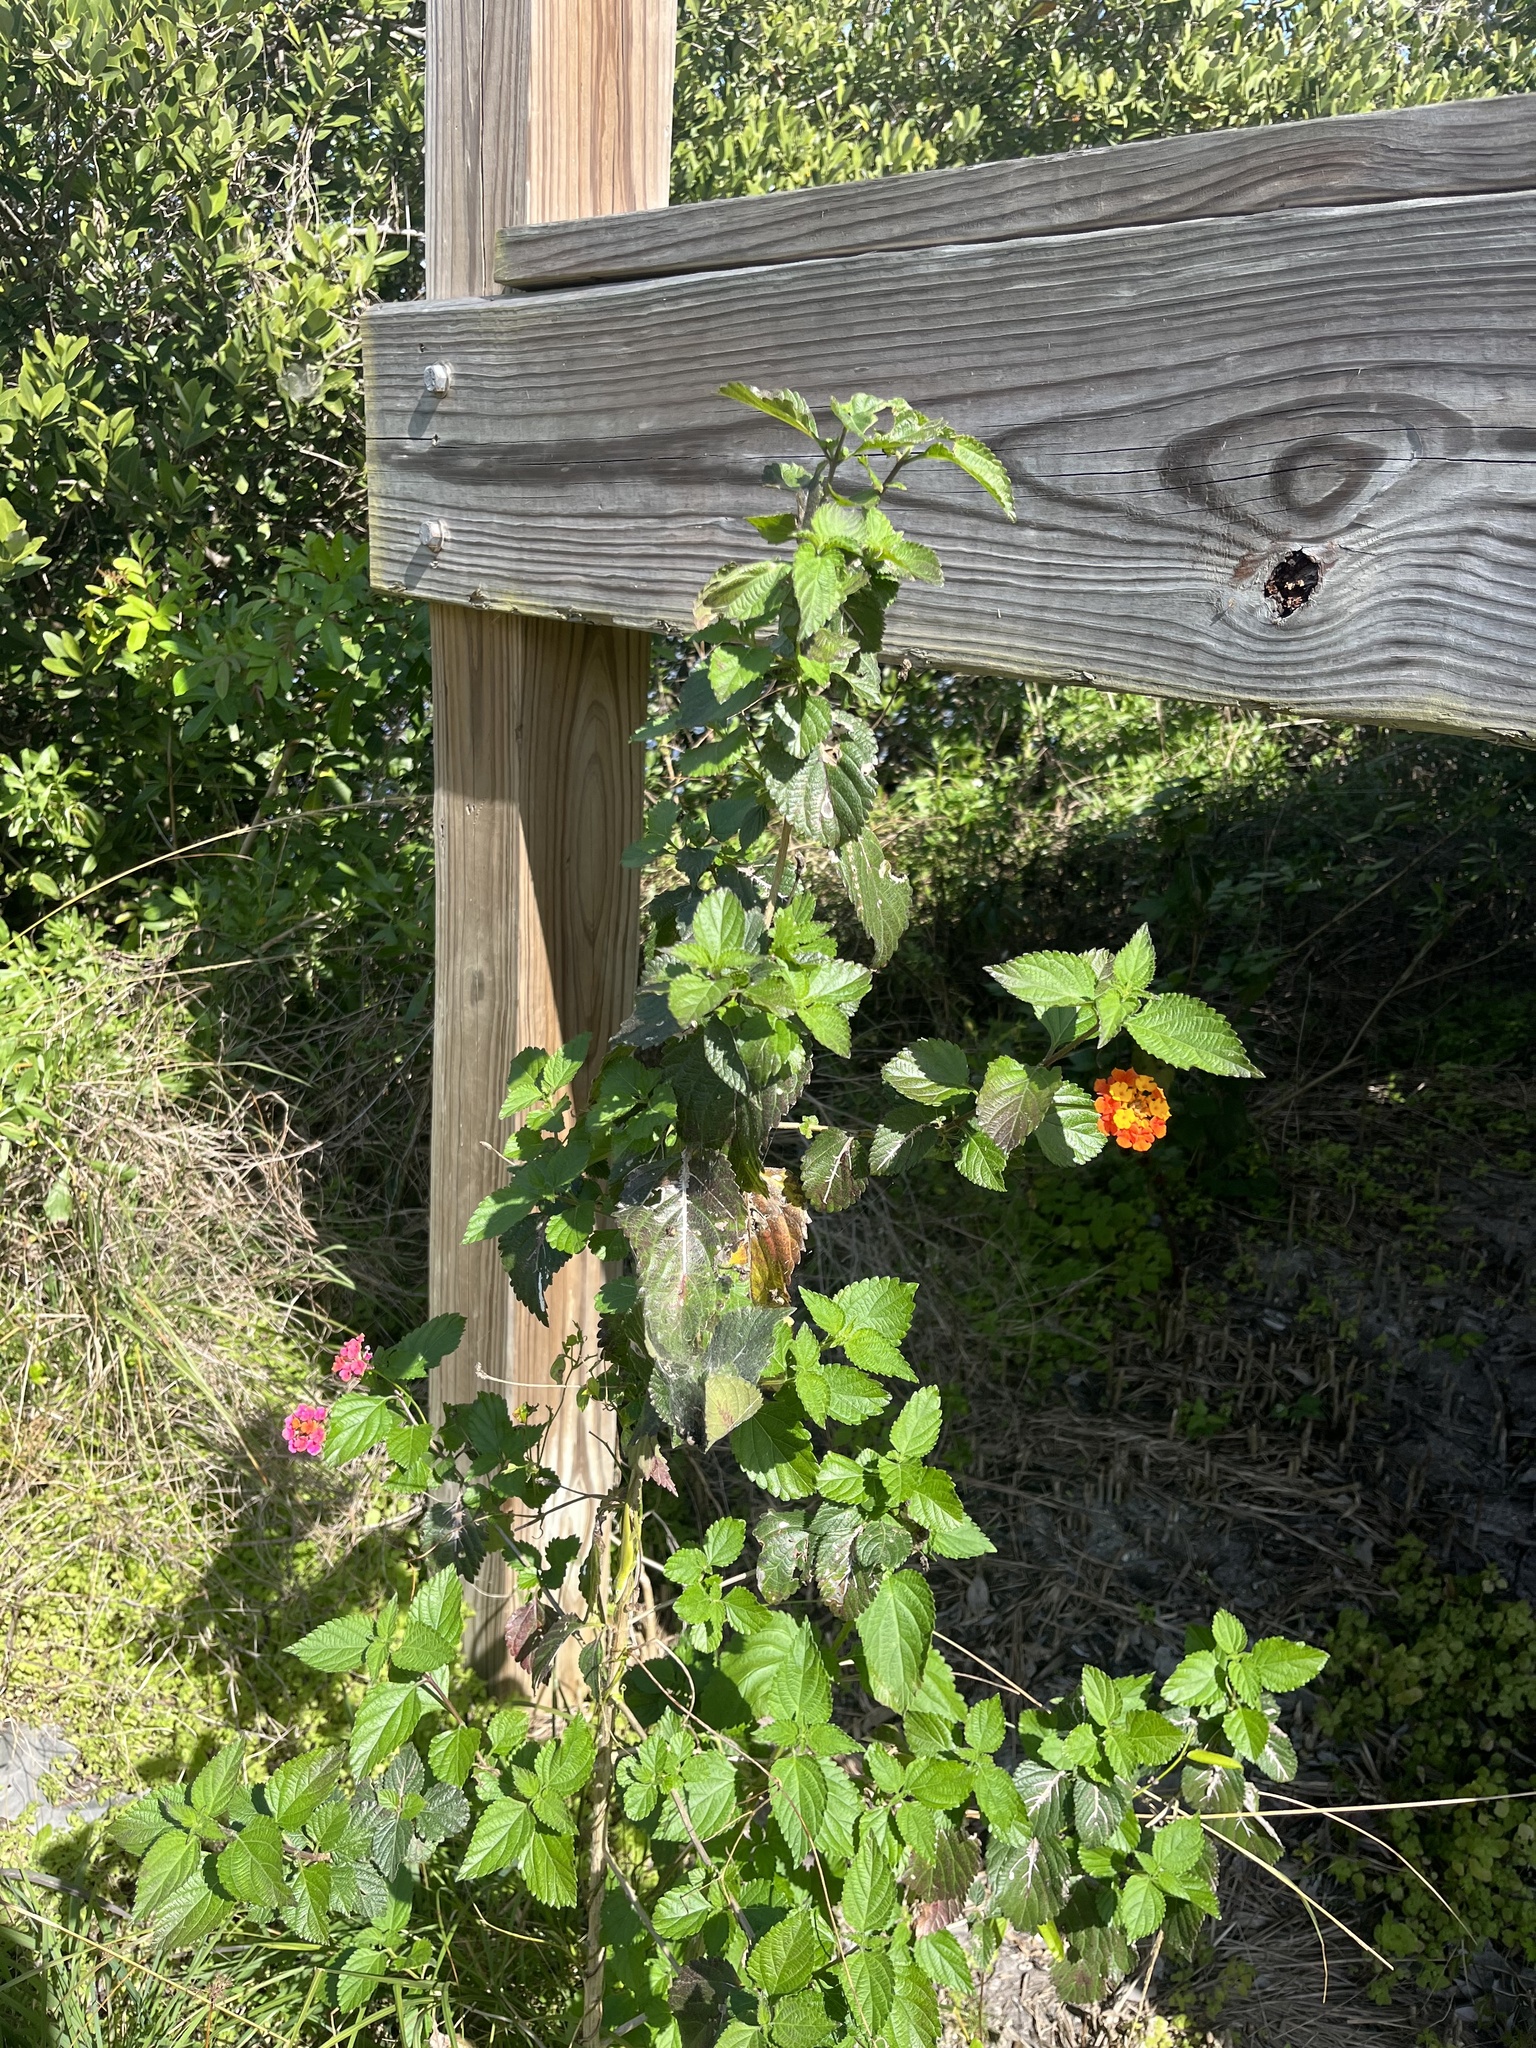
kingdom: Animalia
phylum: Arthropoda
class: Insecta
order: Diptera
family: Agromyzidae
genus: Ophiomyia
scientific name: Ophiomyia camarae
